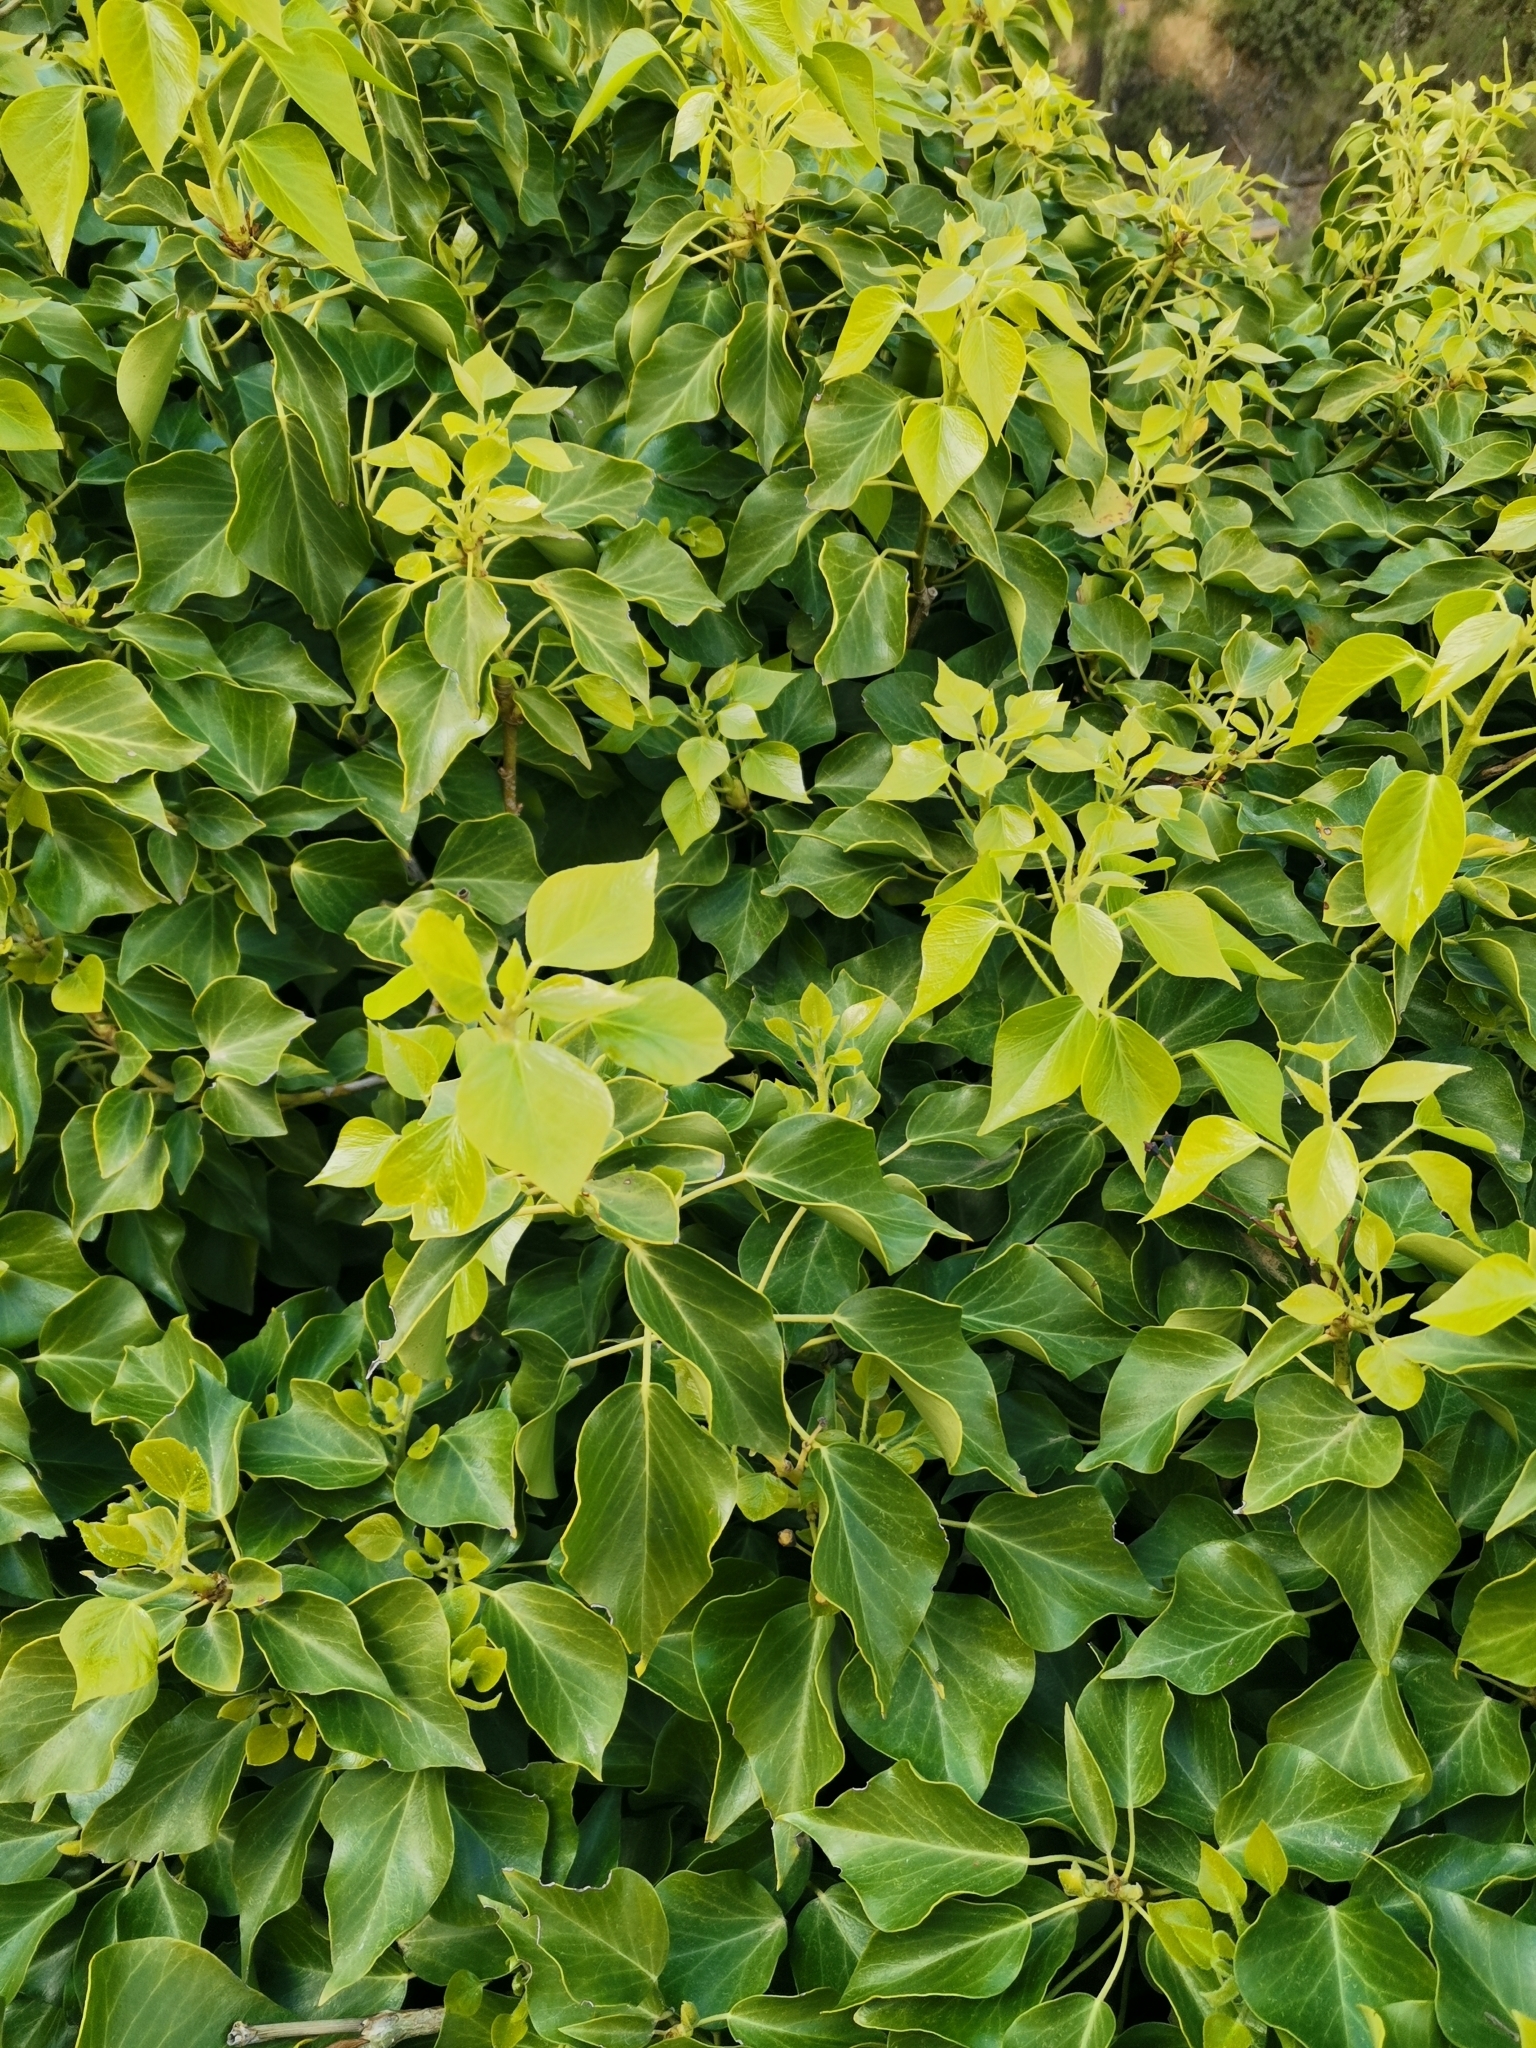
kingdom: Plantae
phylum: Tracheophyta
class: Magnoliopsida
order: Apiales
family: Araliaceae
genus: Hedera
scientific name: Hedera helix
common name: Ivy
